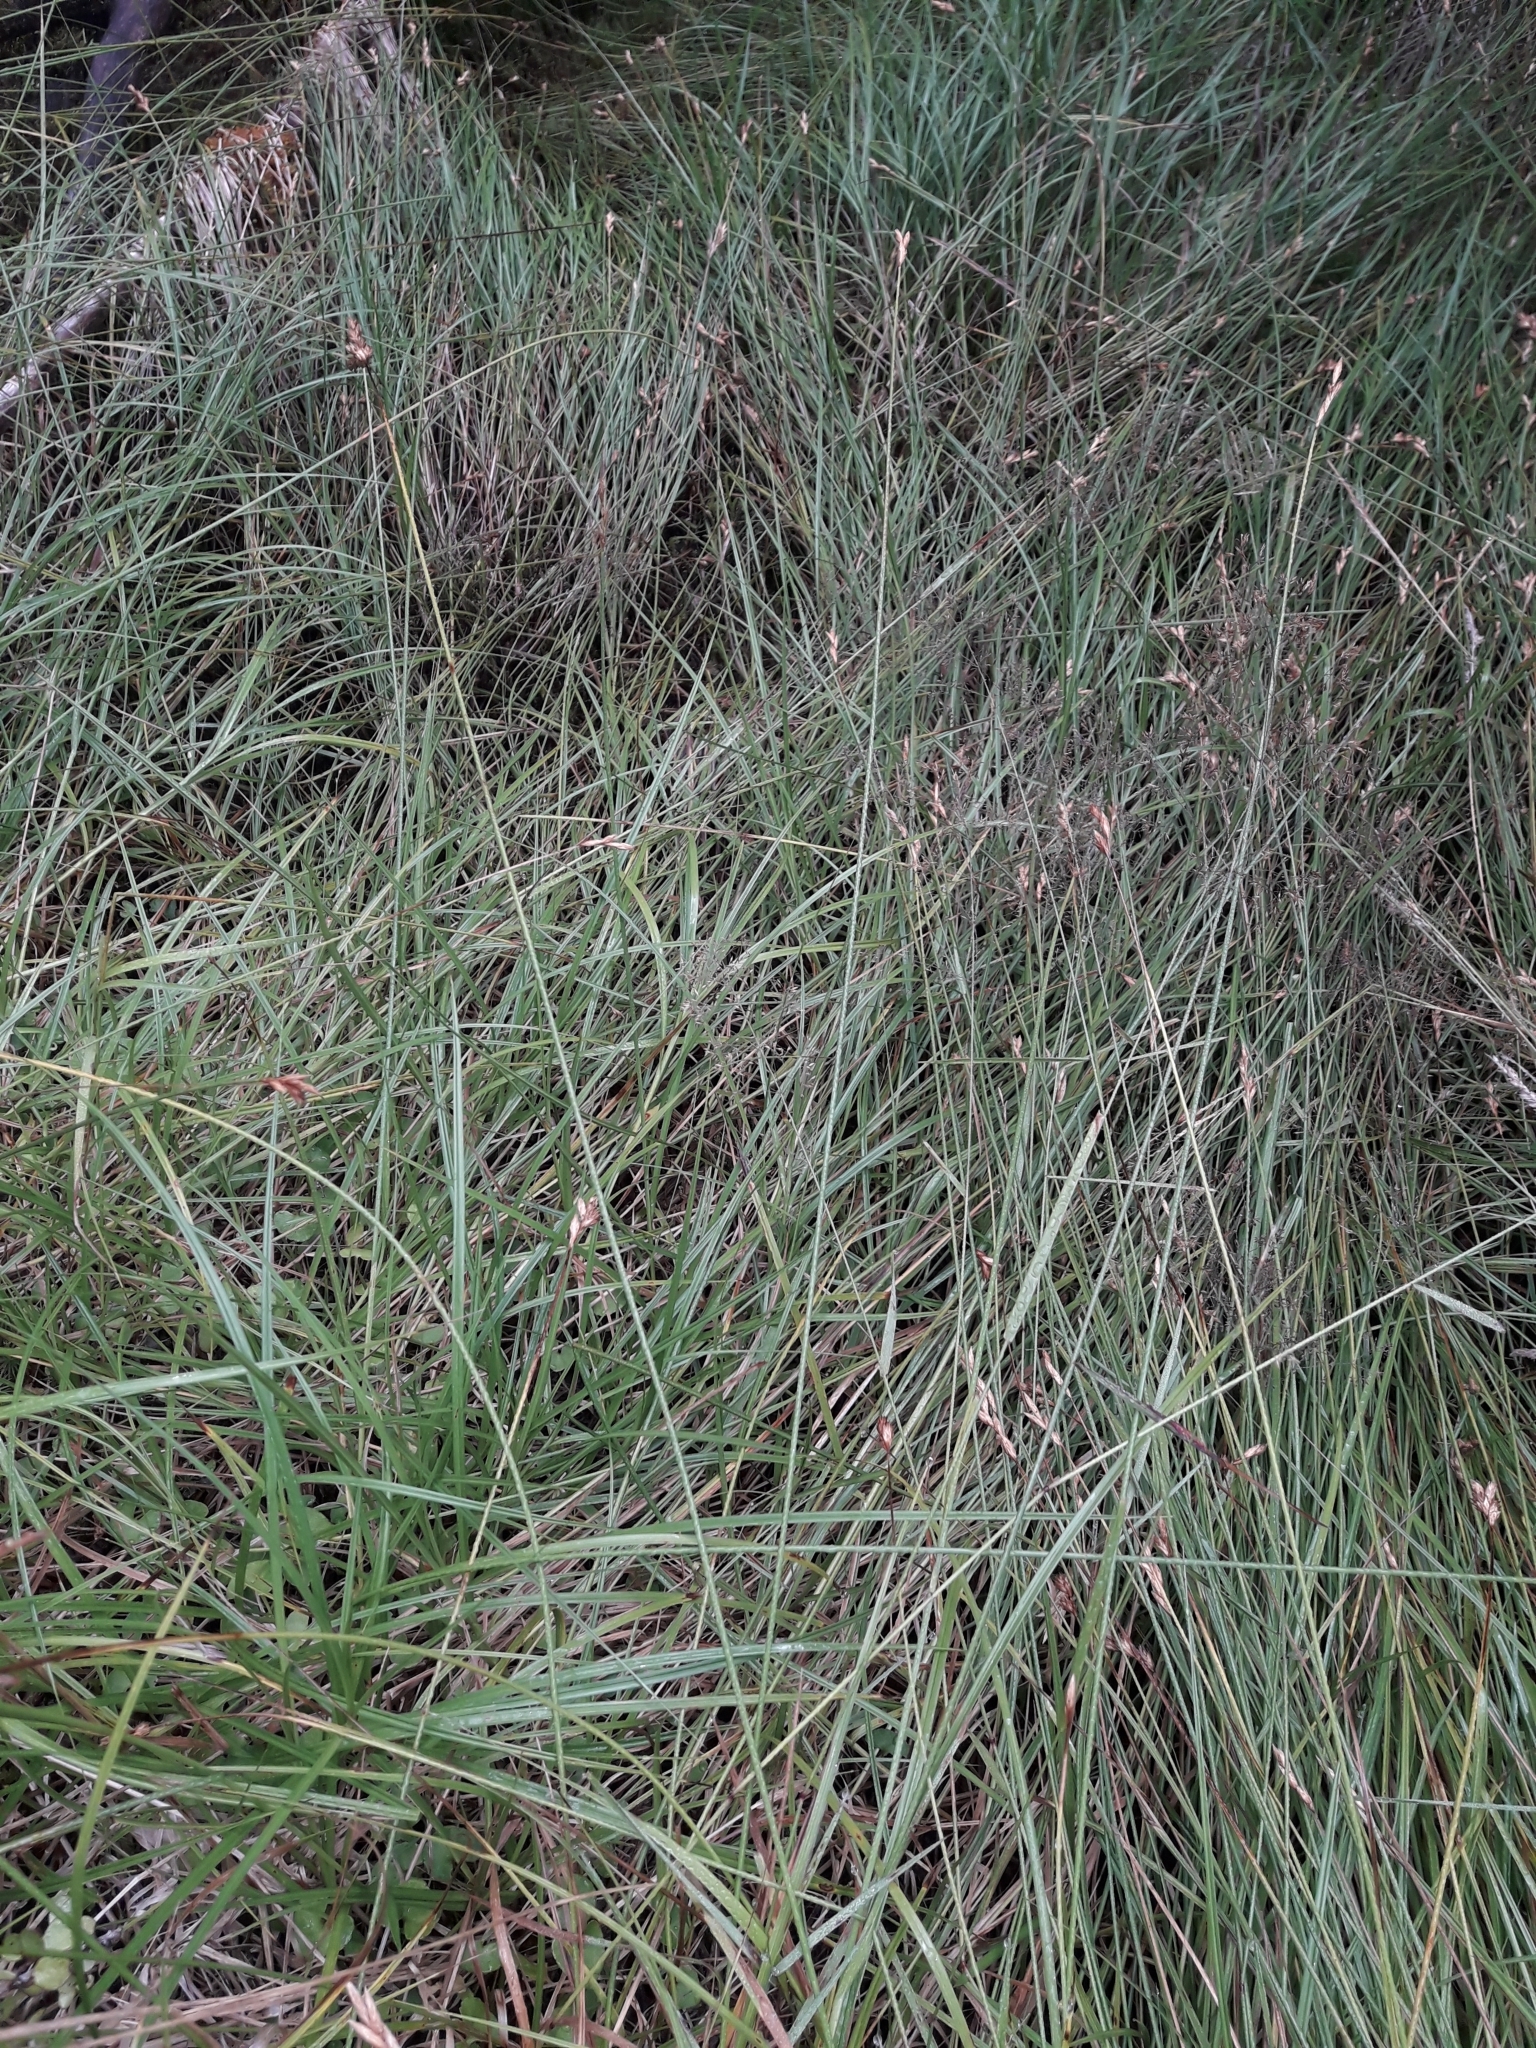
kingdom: Plantae
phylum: Tracheophyta
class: Liliopsida
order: Poales
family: Cyperaceae
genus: Carex
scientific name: Carex leporina
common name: Oval sedge
